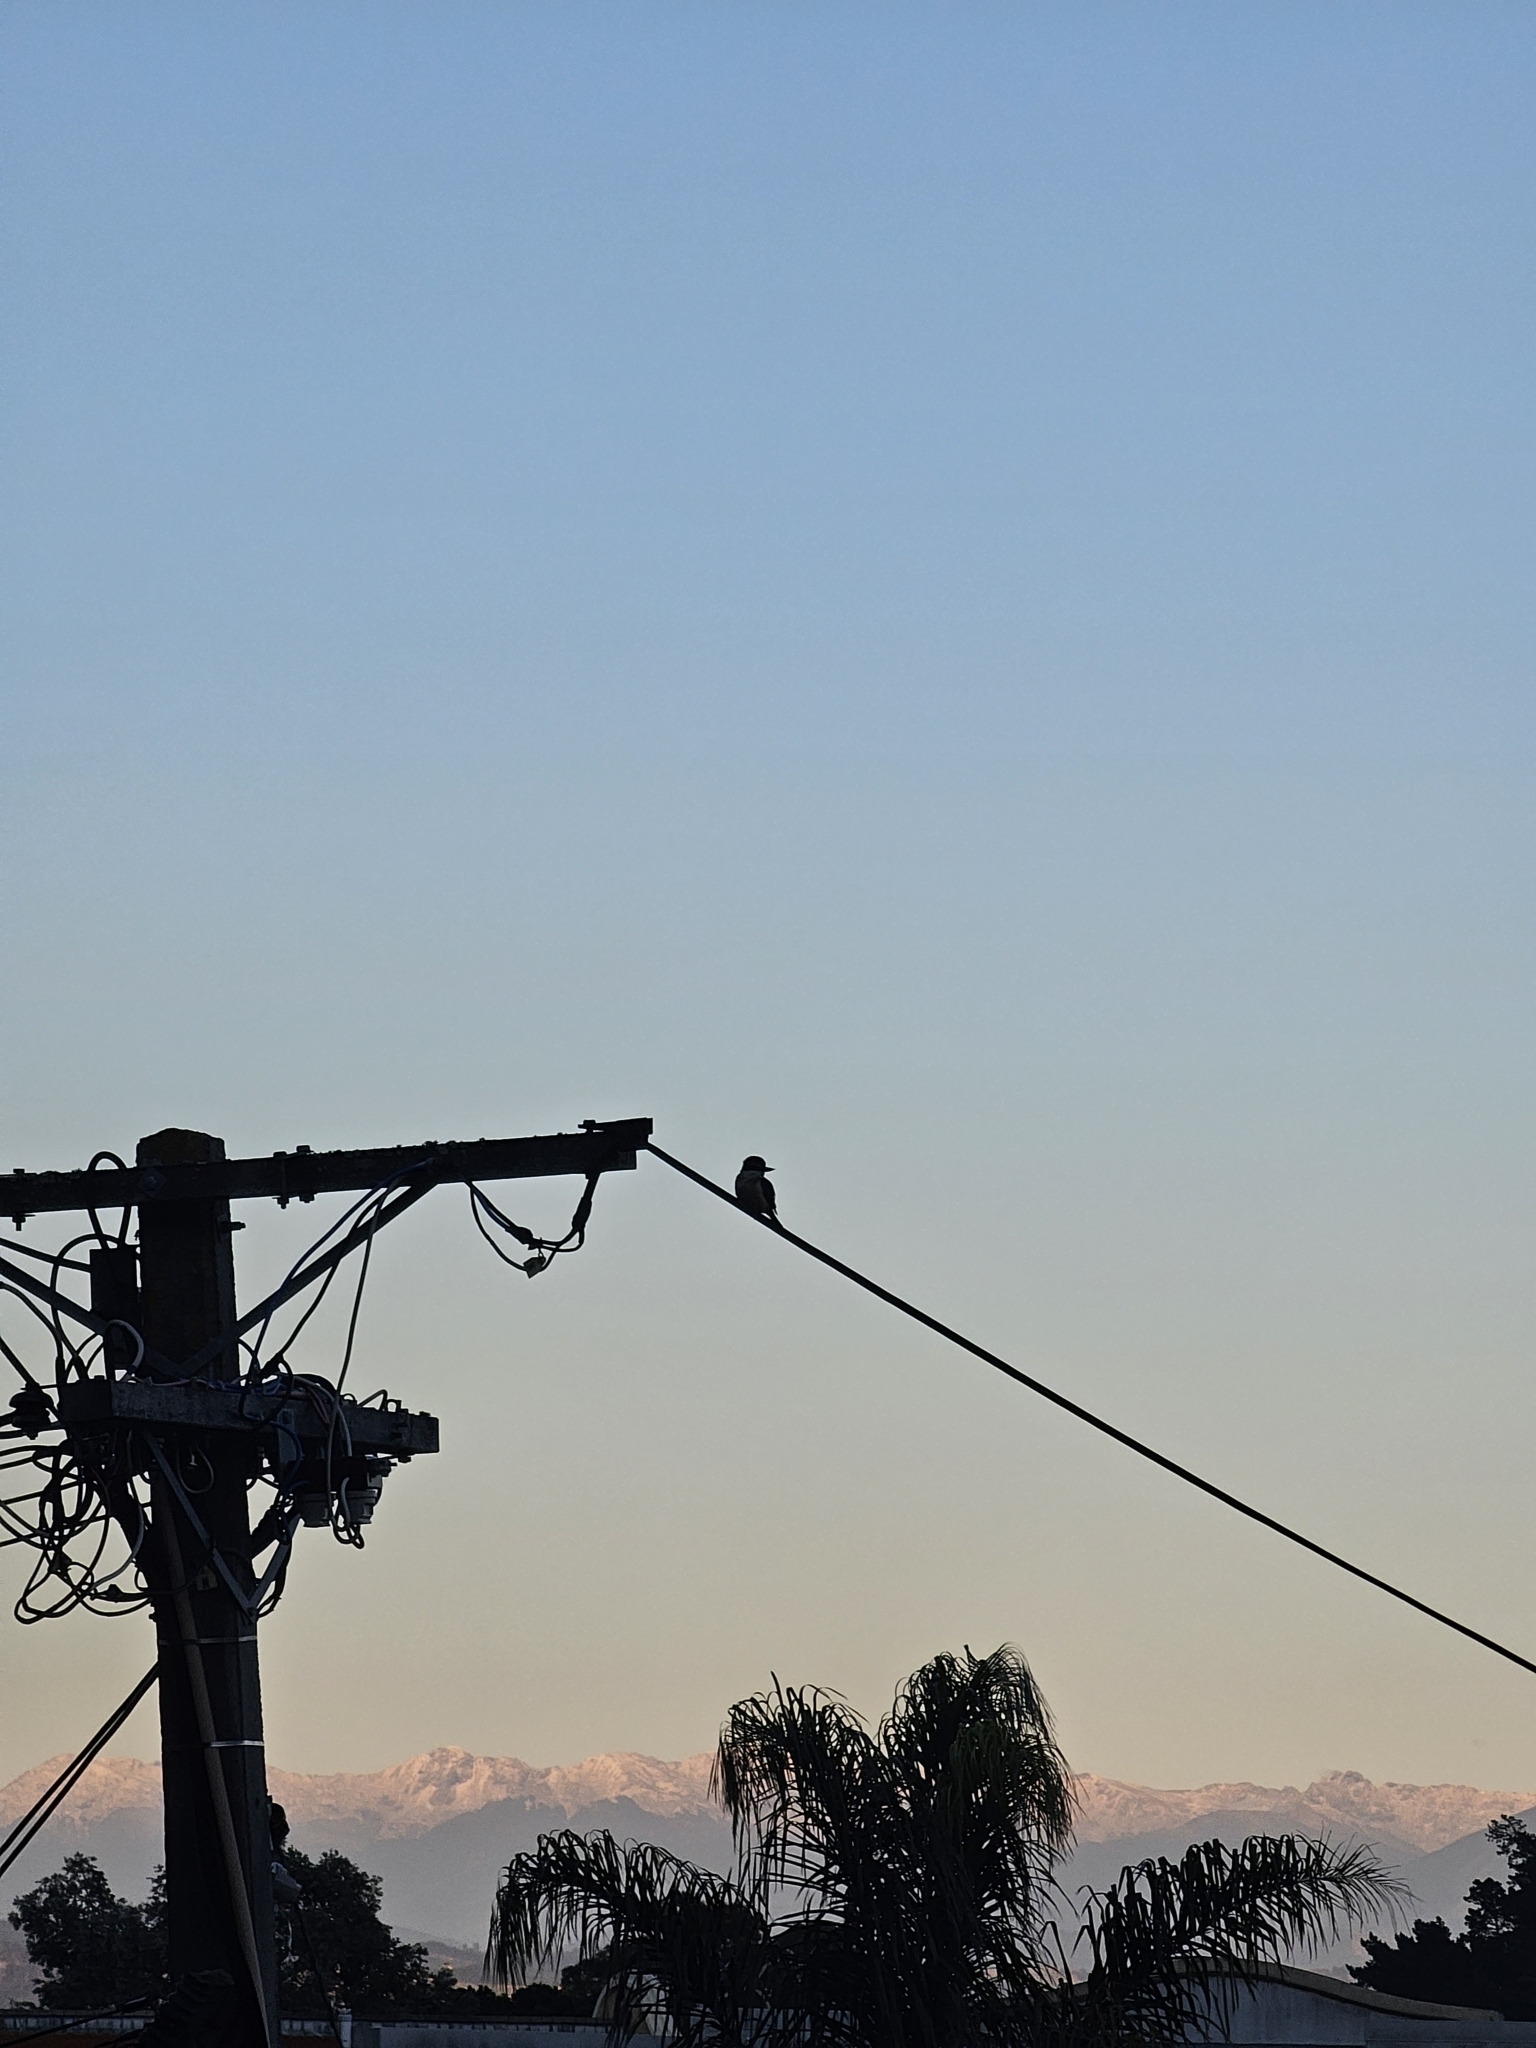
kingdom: Animalia
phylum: Chordata
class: Aves
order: Coraciiformes
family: Alcedinidae
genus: Todiramphus
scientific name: Todiramphus sanctus
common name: Sacred kingfisher
